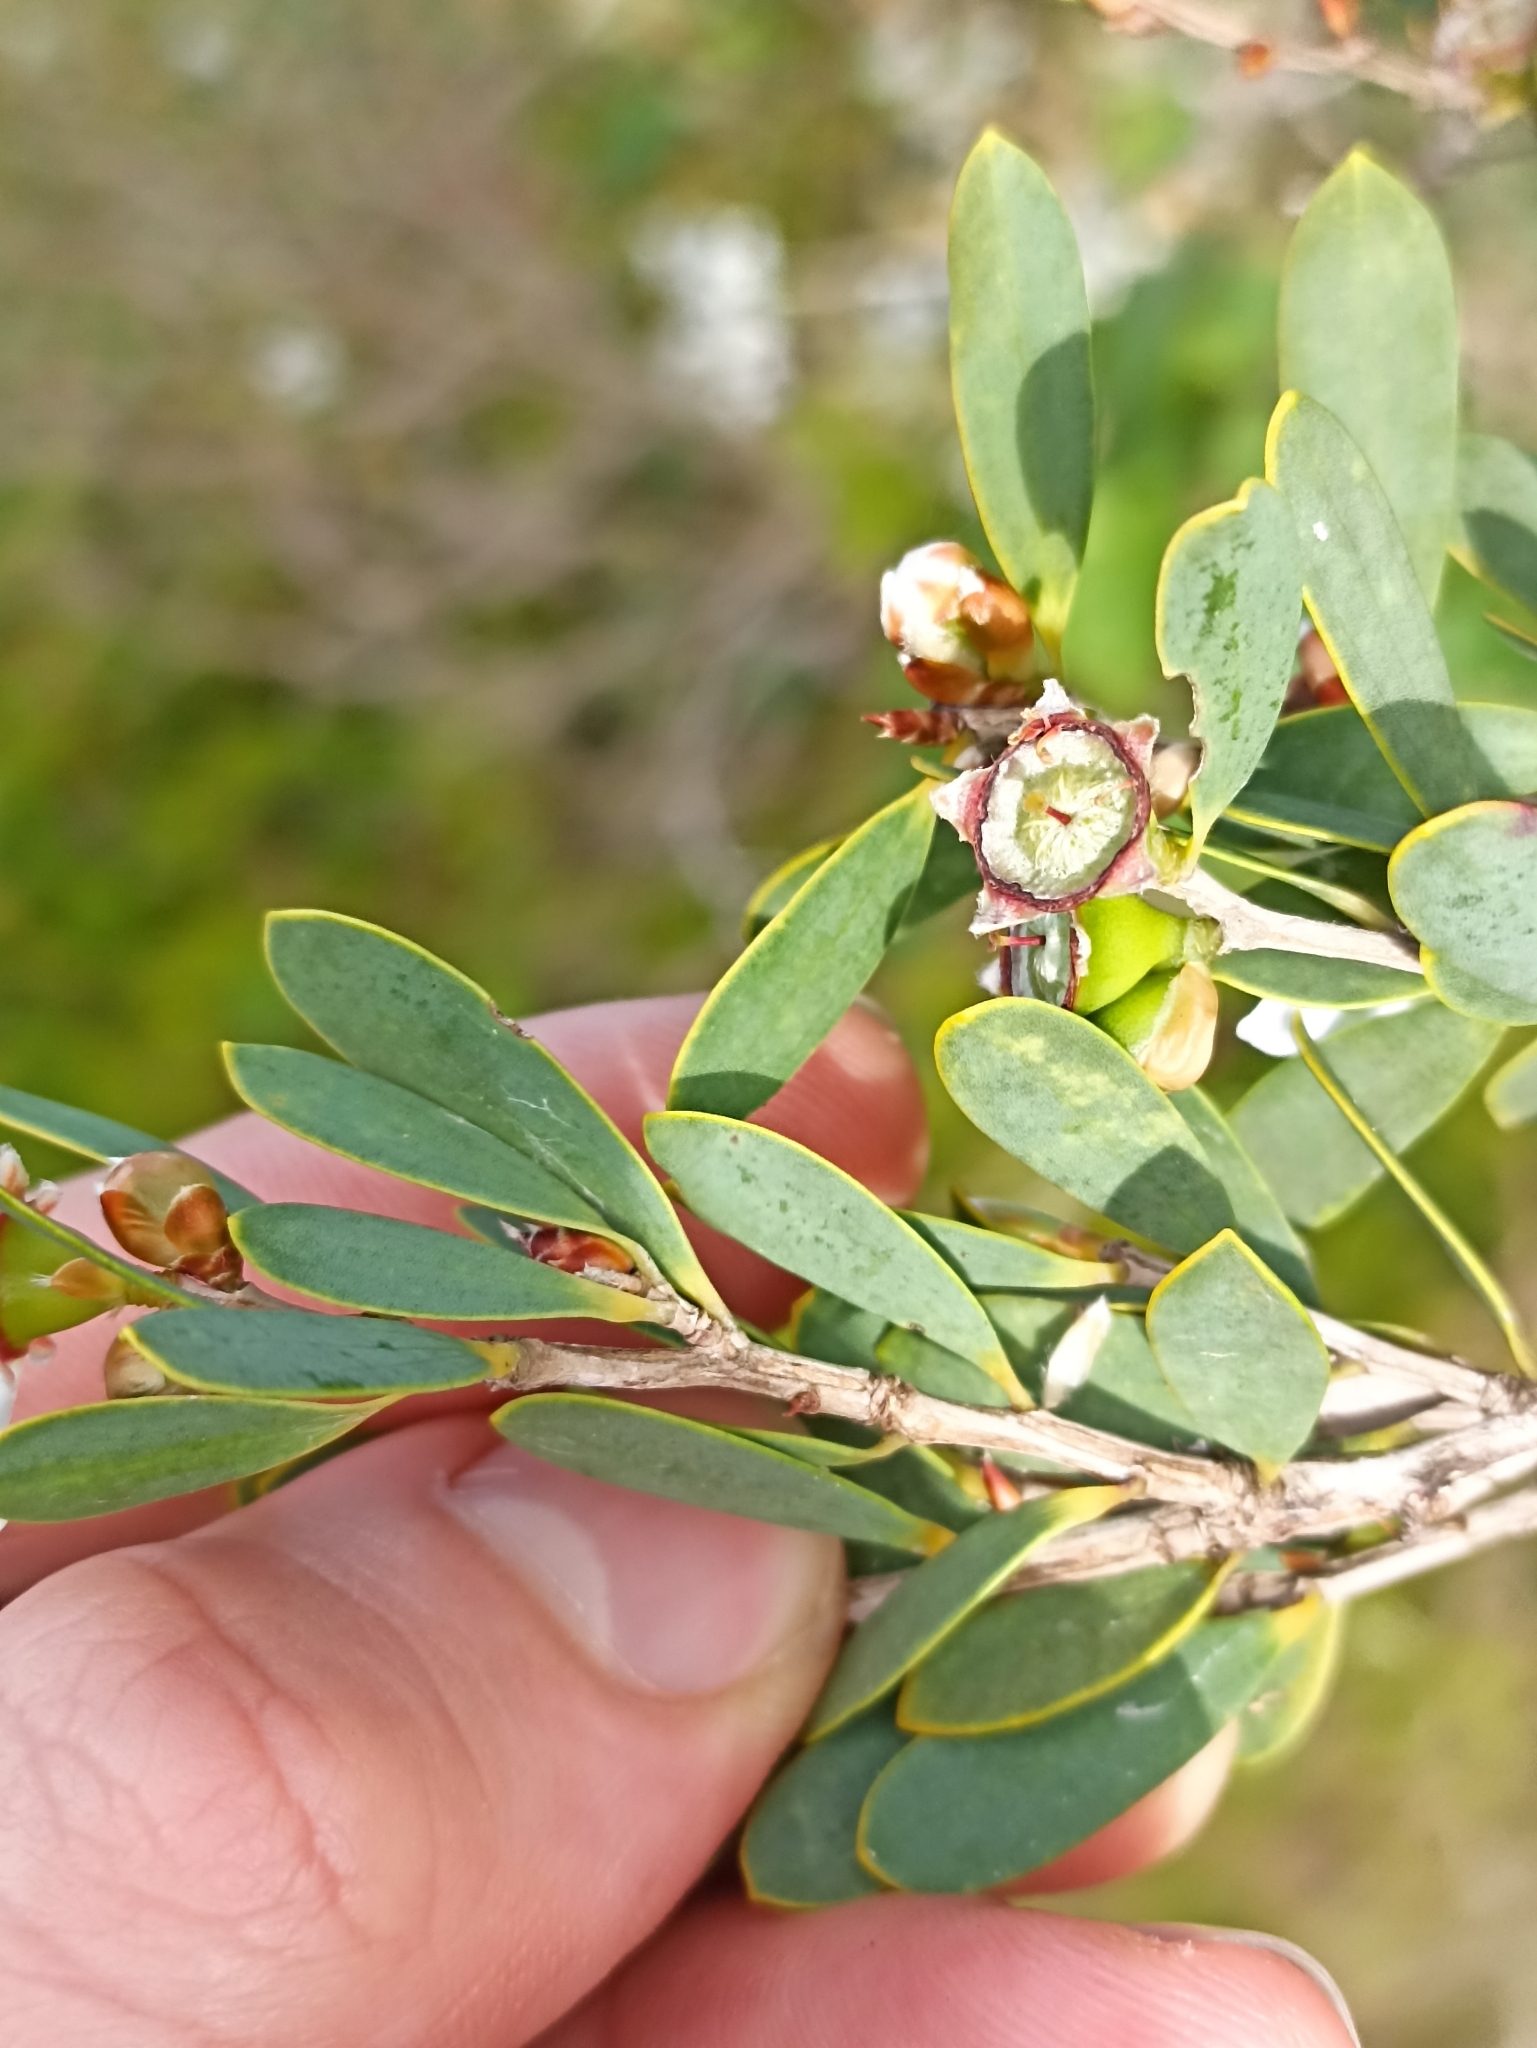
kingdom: Plantae
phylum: Tracheophyta
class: Magnoliopsida
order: Myrtales
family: Myrtaceae
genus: Leptospermum
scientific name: Leptospermum laevigatum
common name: Australian teatree
